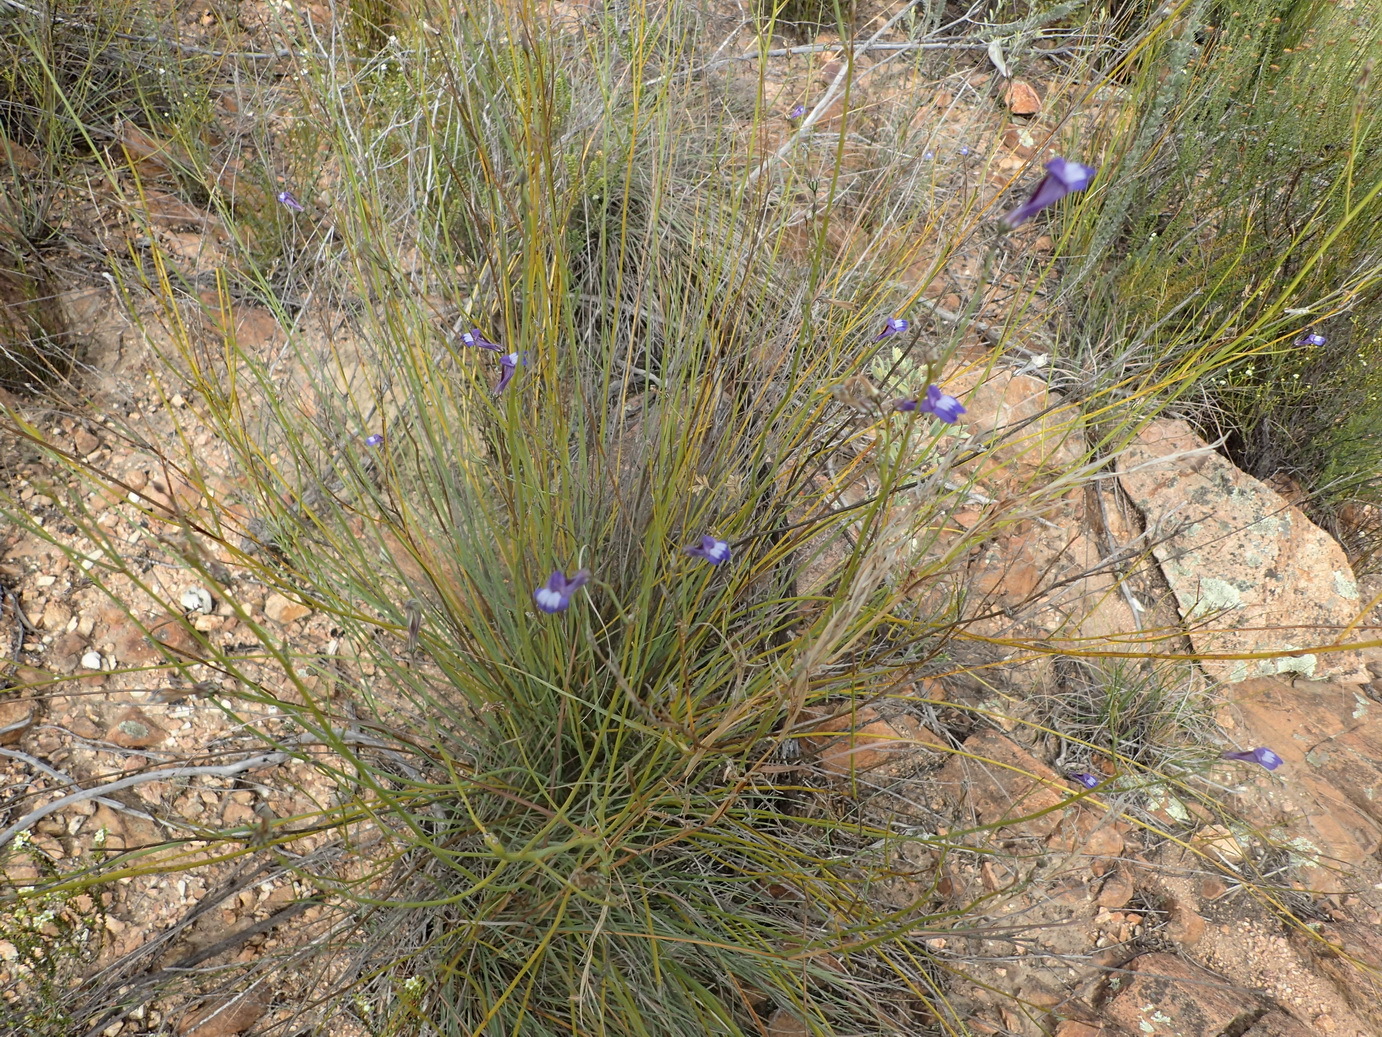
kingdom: Plantae
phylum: Tracheophyta
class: Magnoliopsida
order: Asterales
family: Campanulaceae
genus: Lobelia
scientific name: Lobelia linearis
